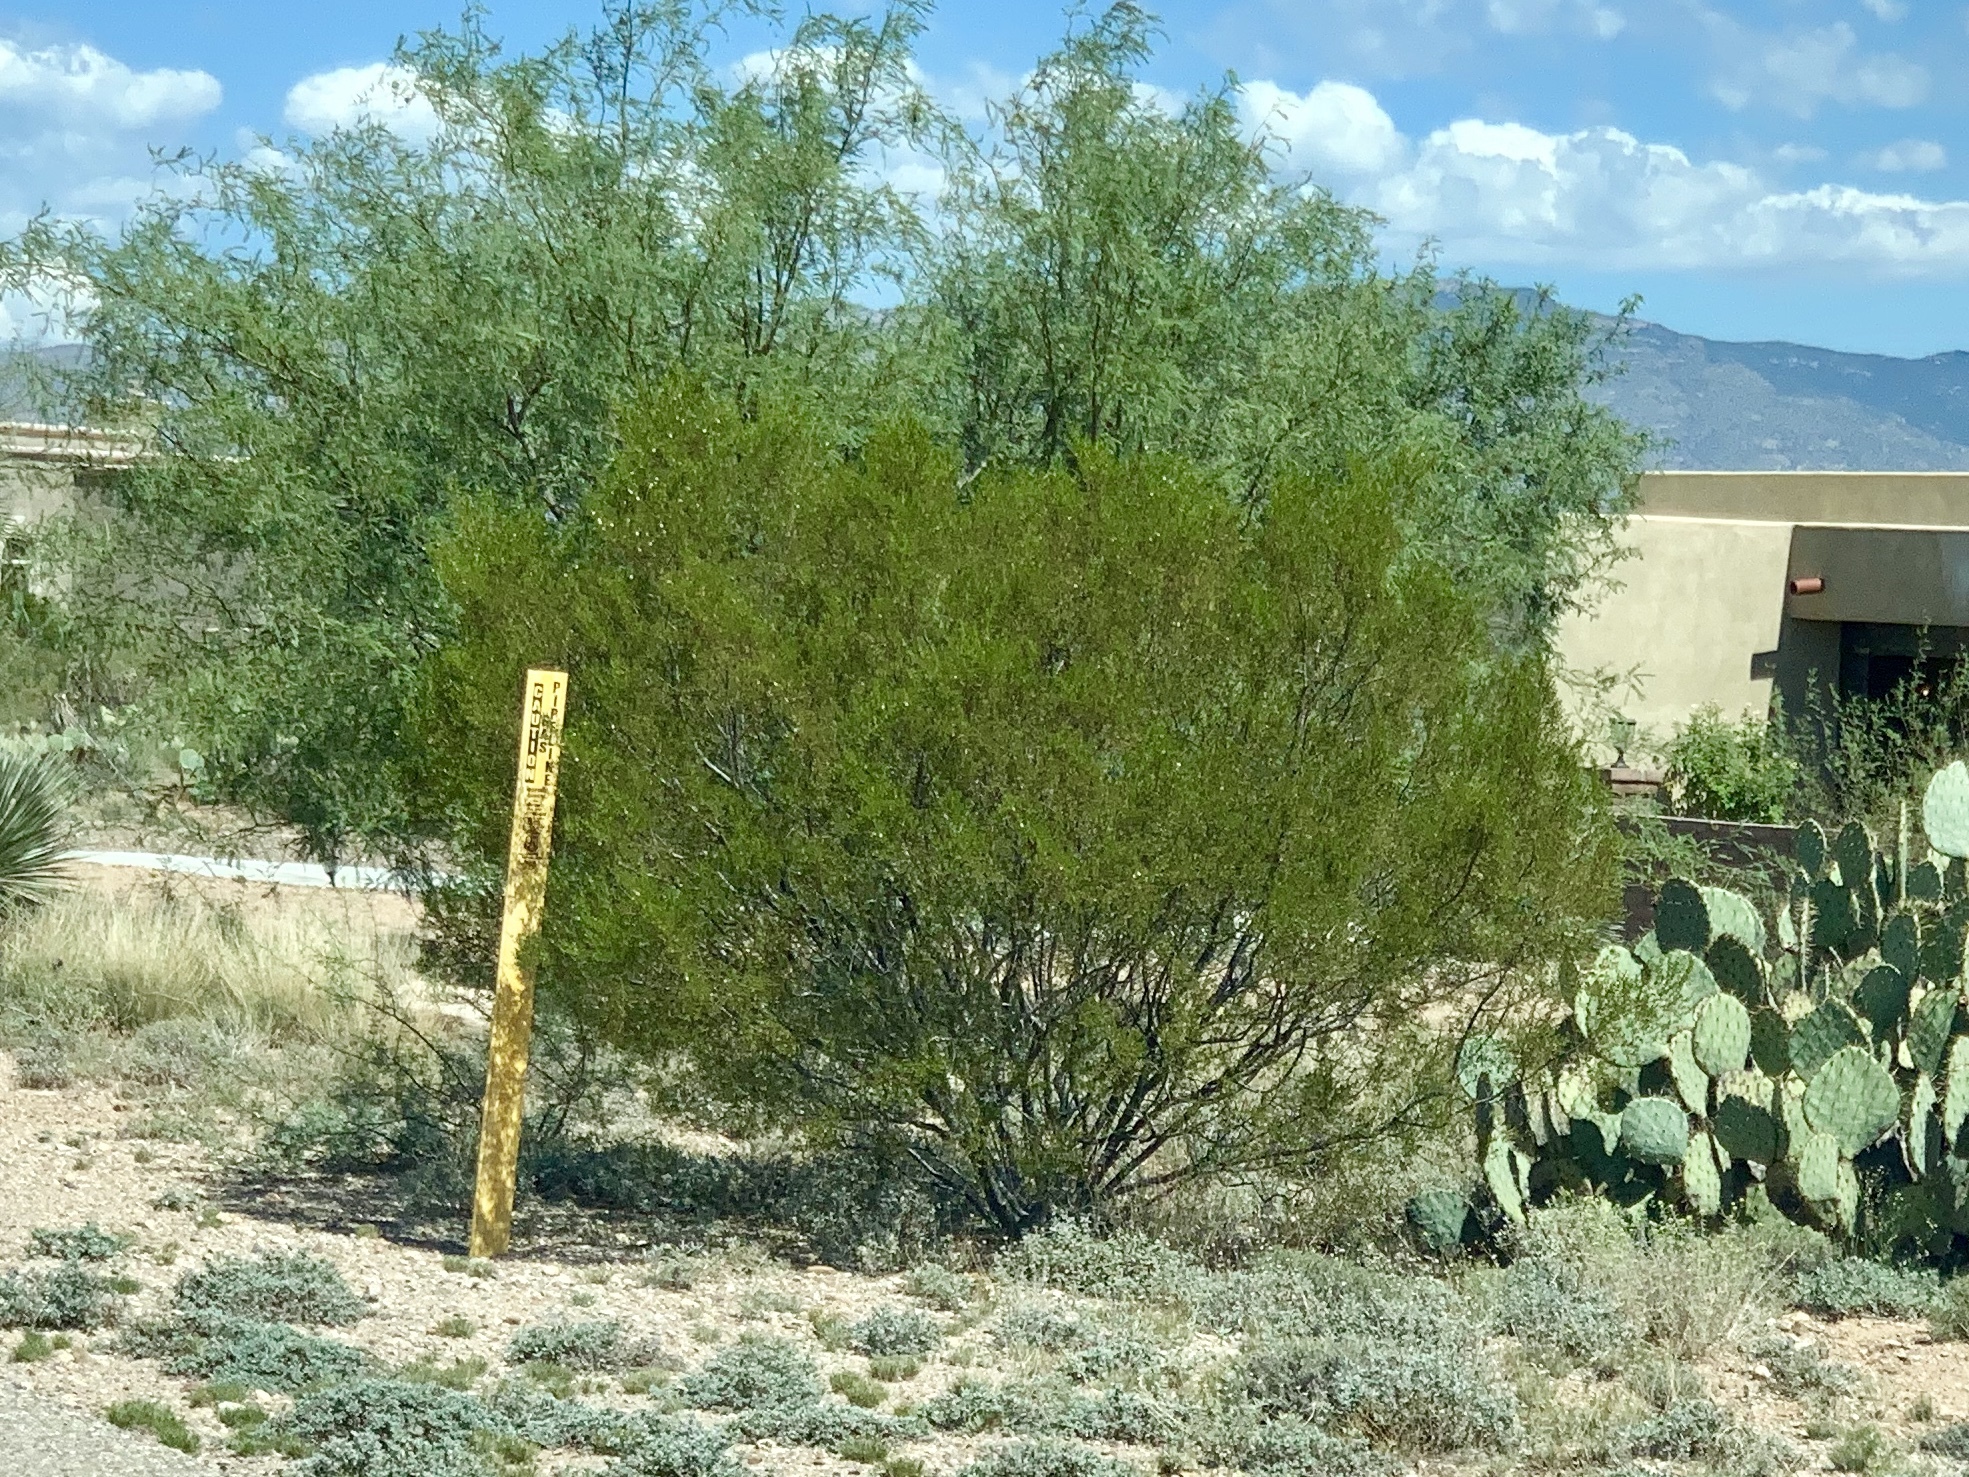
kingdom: Plantae
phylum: Tracheophyta
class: Magnoliopsida
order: Zygophyllales
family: Zygophyllaceae
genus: Larrea
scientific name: Larrea tridentata
